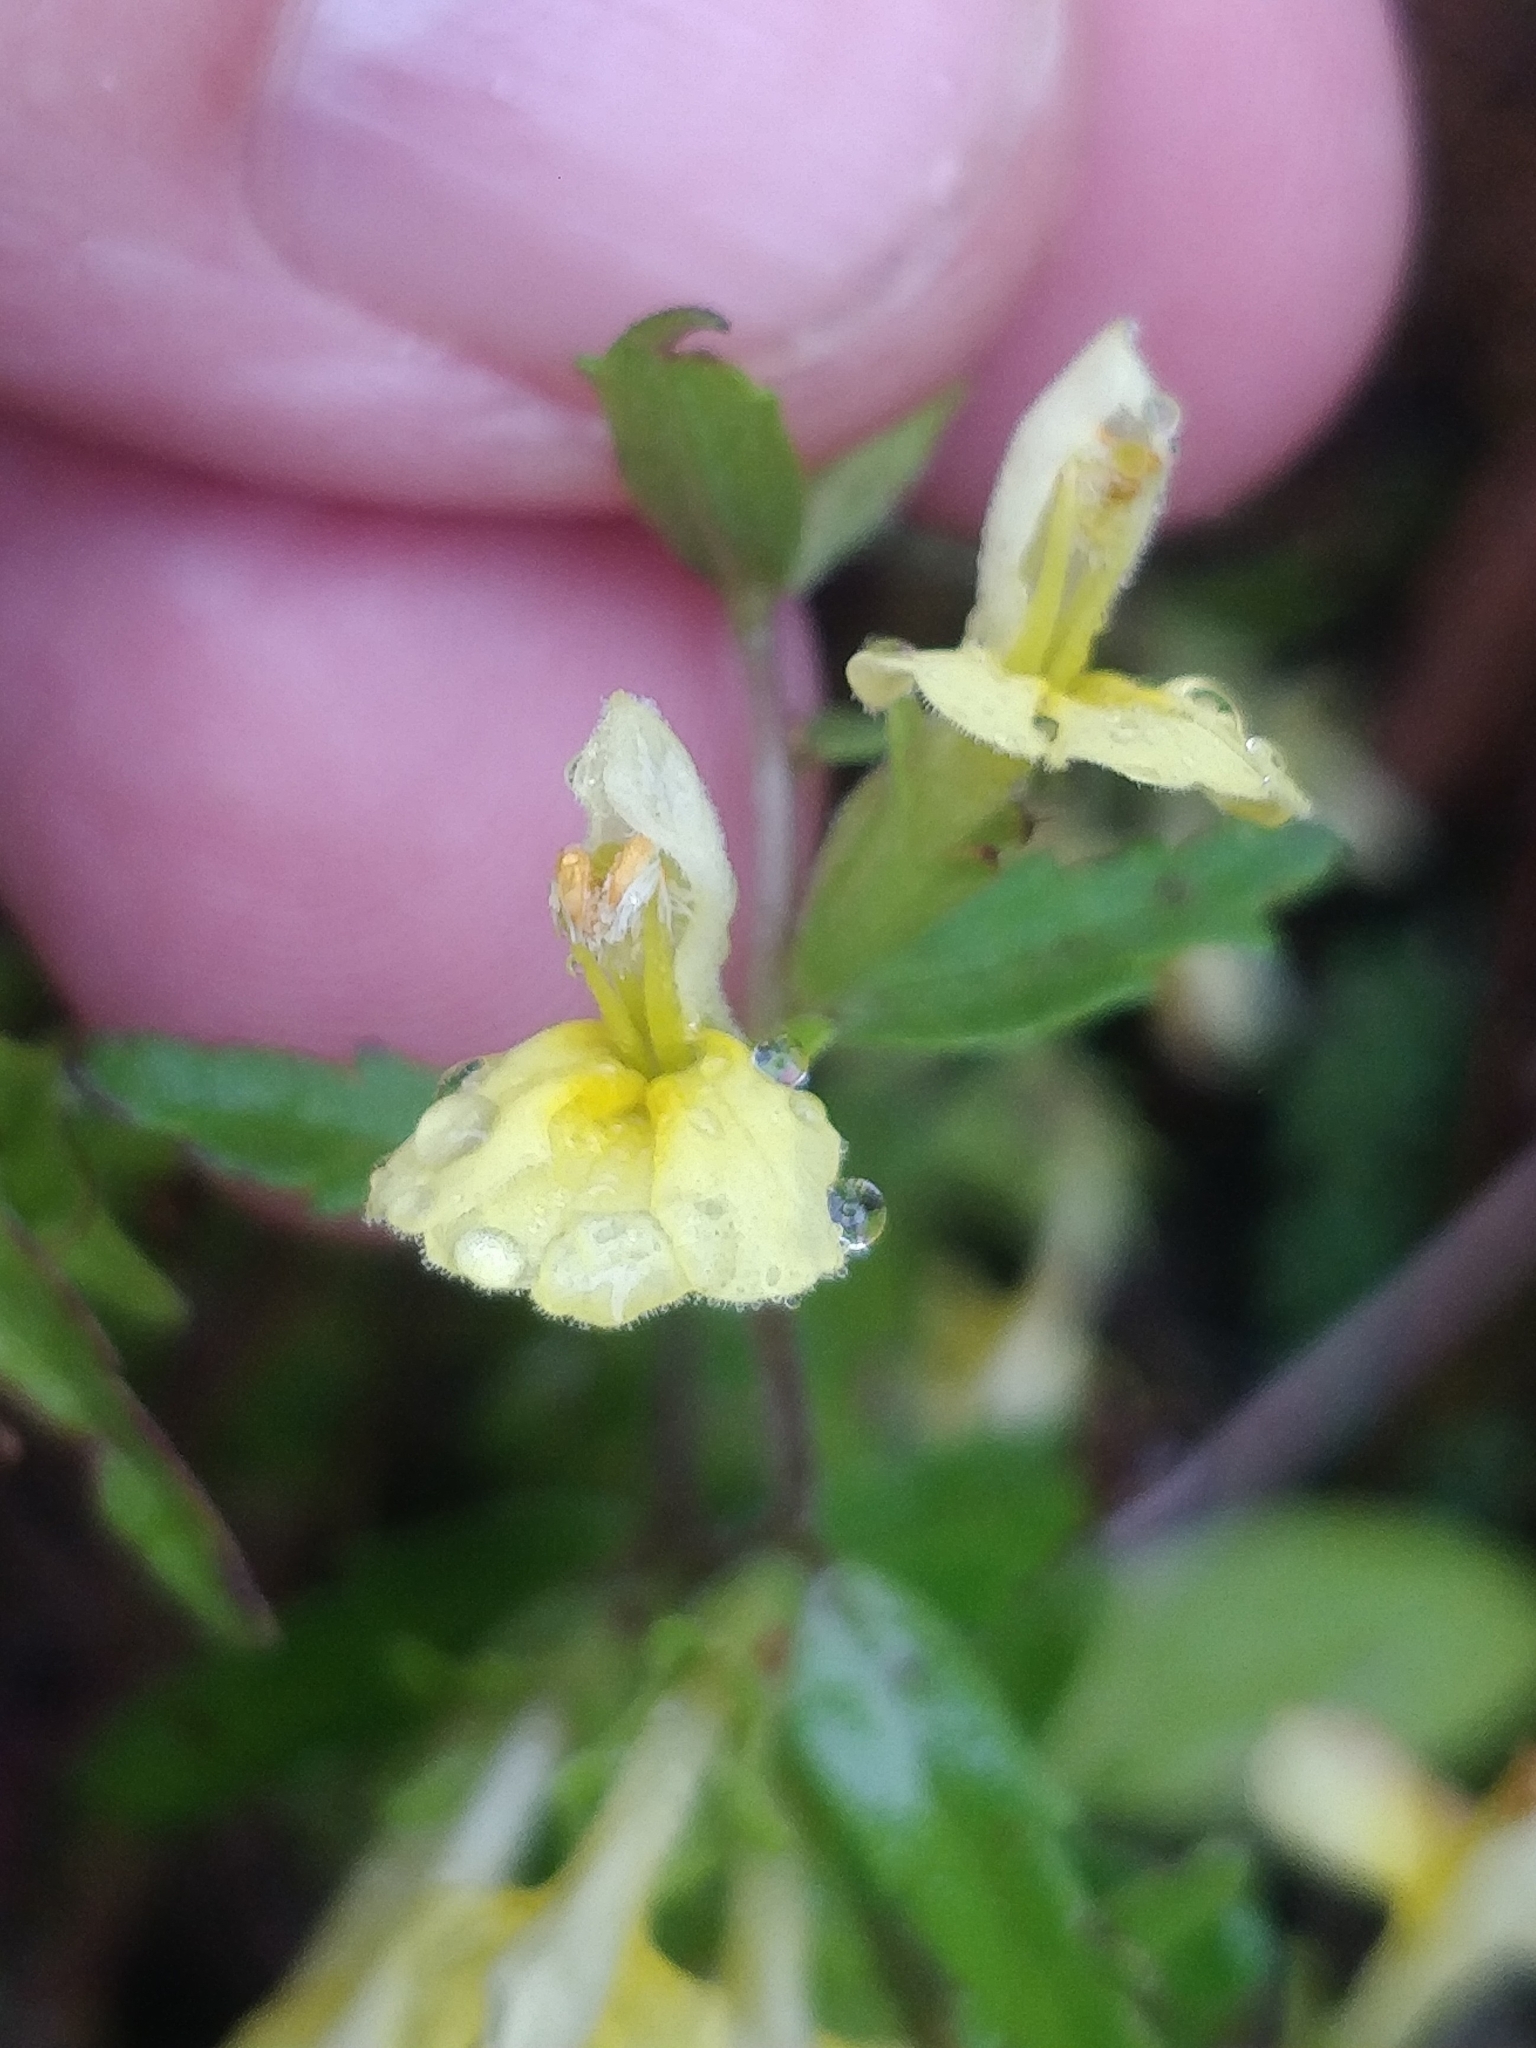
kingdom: Plantae
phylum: Tracheophyta
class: Magnoliopsida
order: Lamiales
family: Orobanchaceae
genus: Odontites
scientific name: Odontites hollianus
